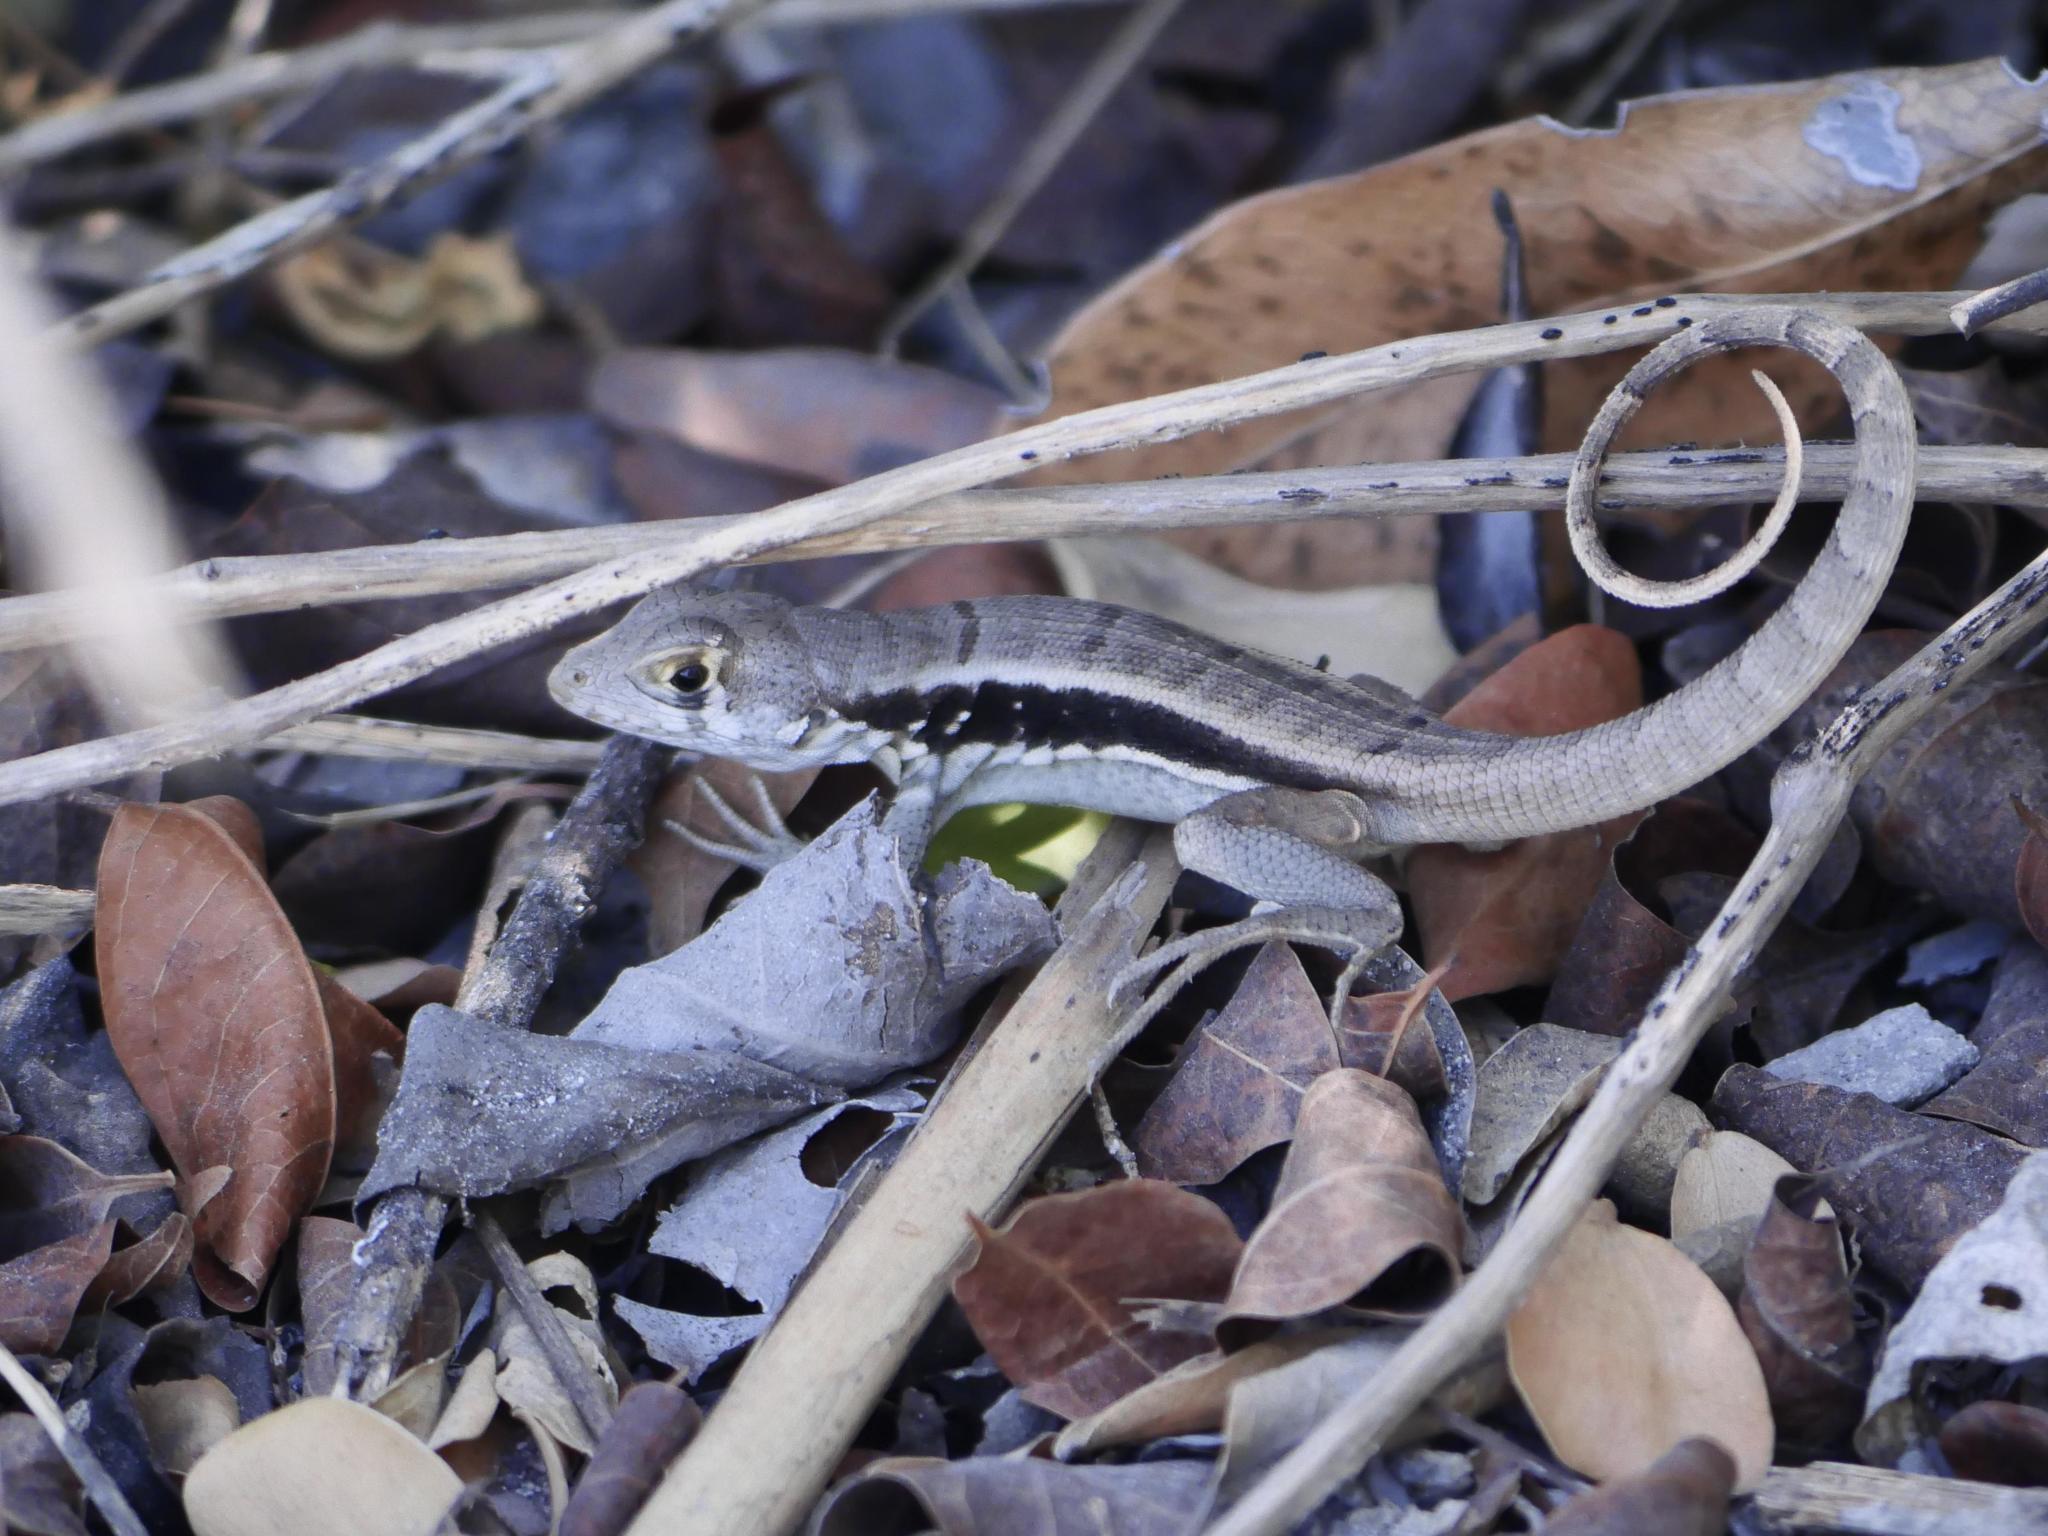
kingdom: Animalia
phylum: Chordata
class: Squamata
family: Leiocephalidae
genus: Leiocephalus
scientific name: Leiocephalus psammodromus
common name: Bastion cay curlytail lizard
